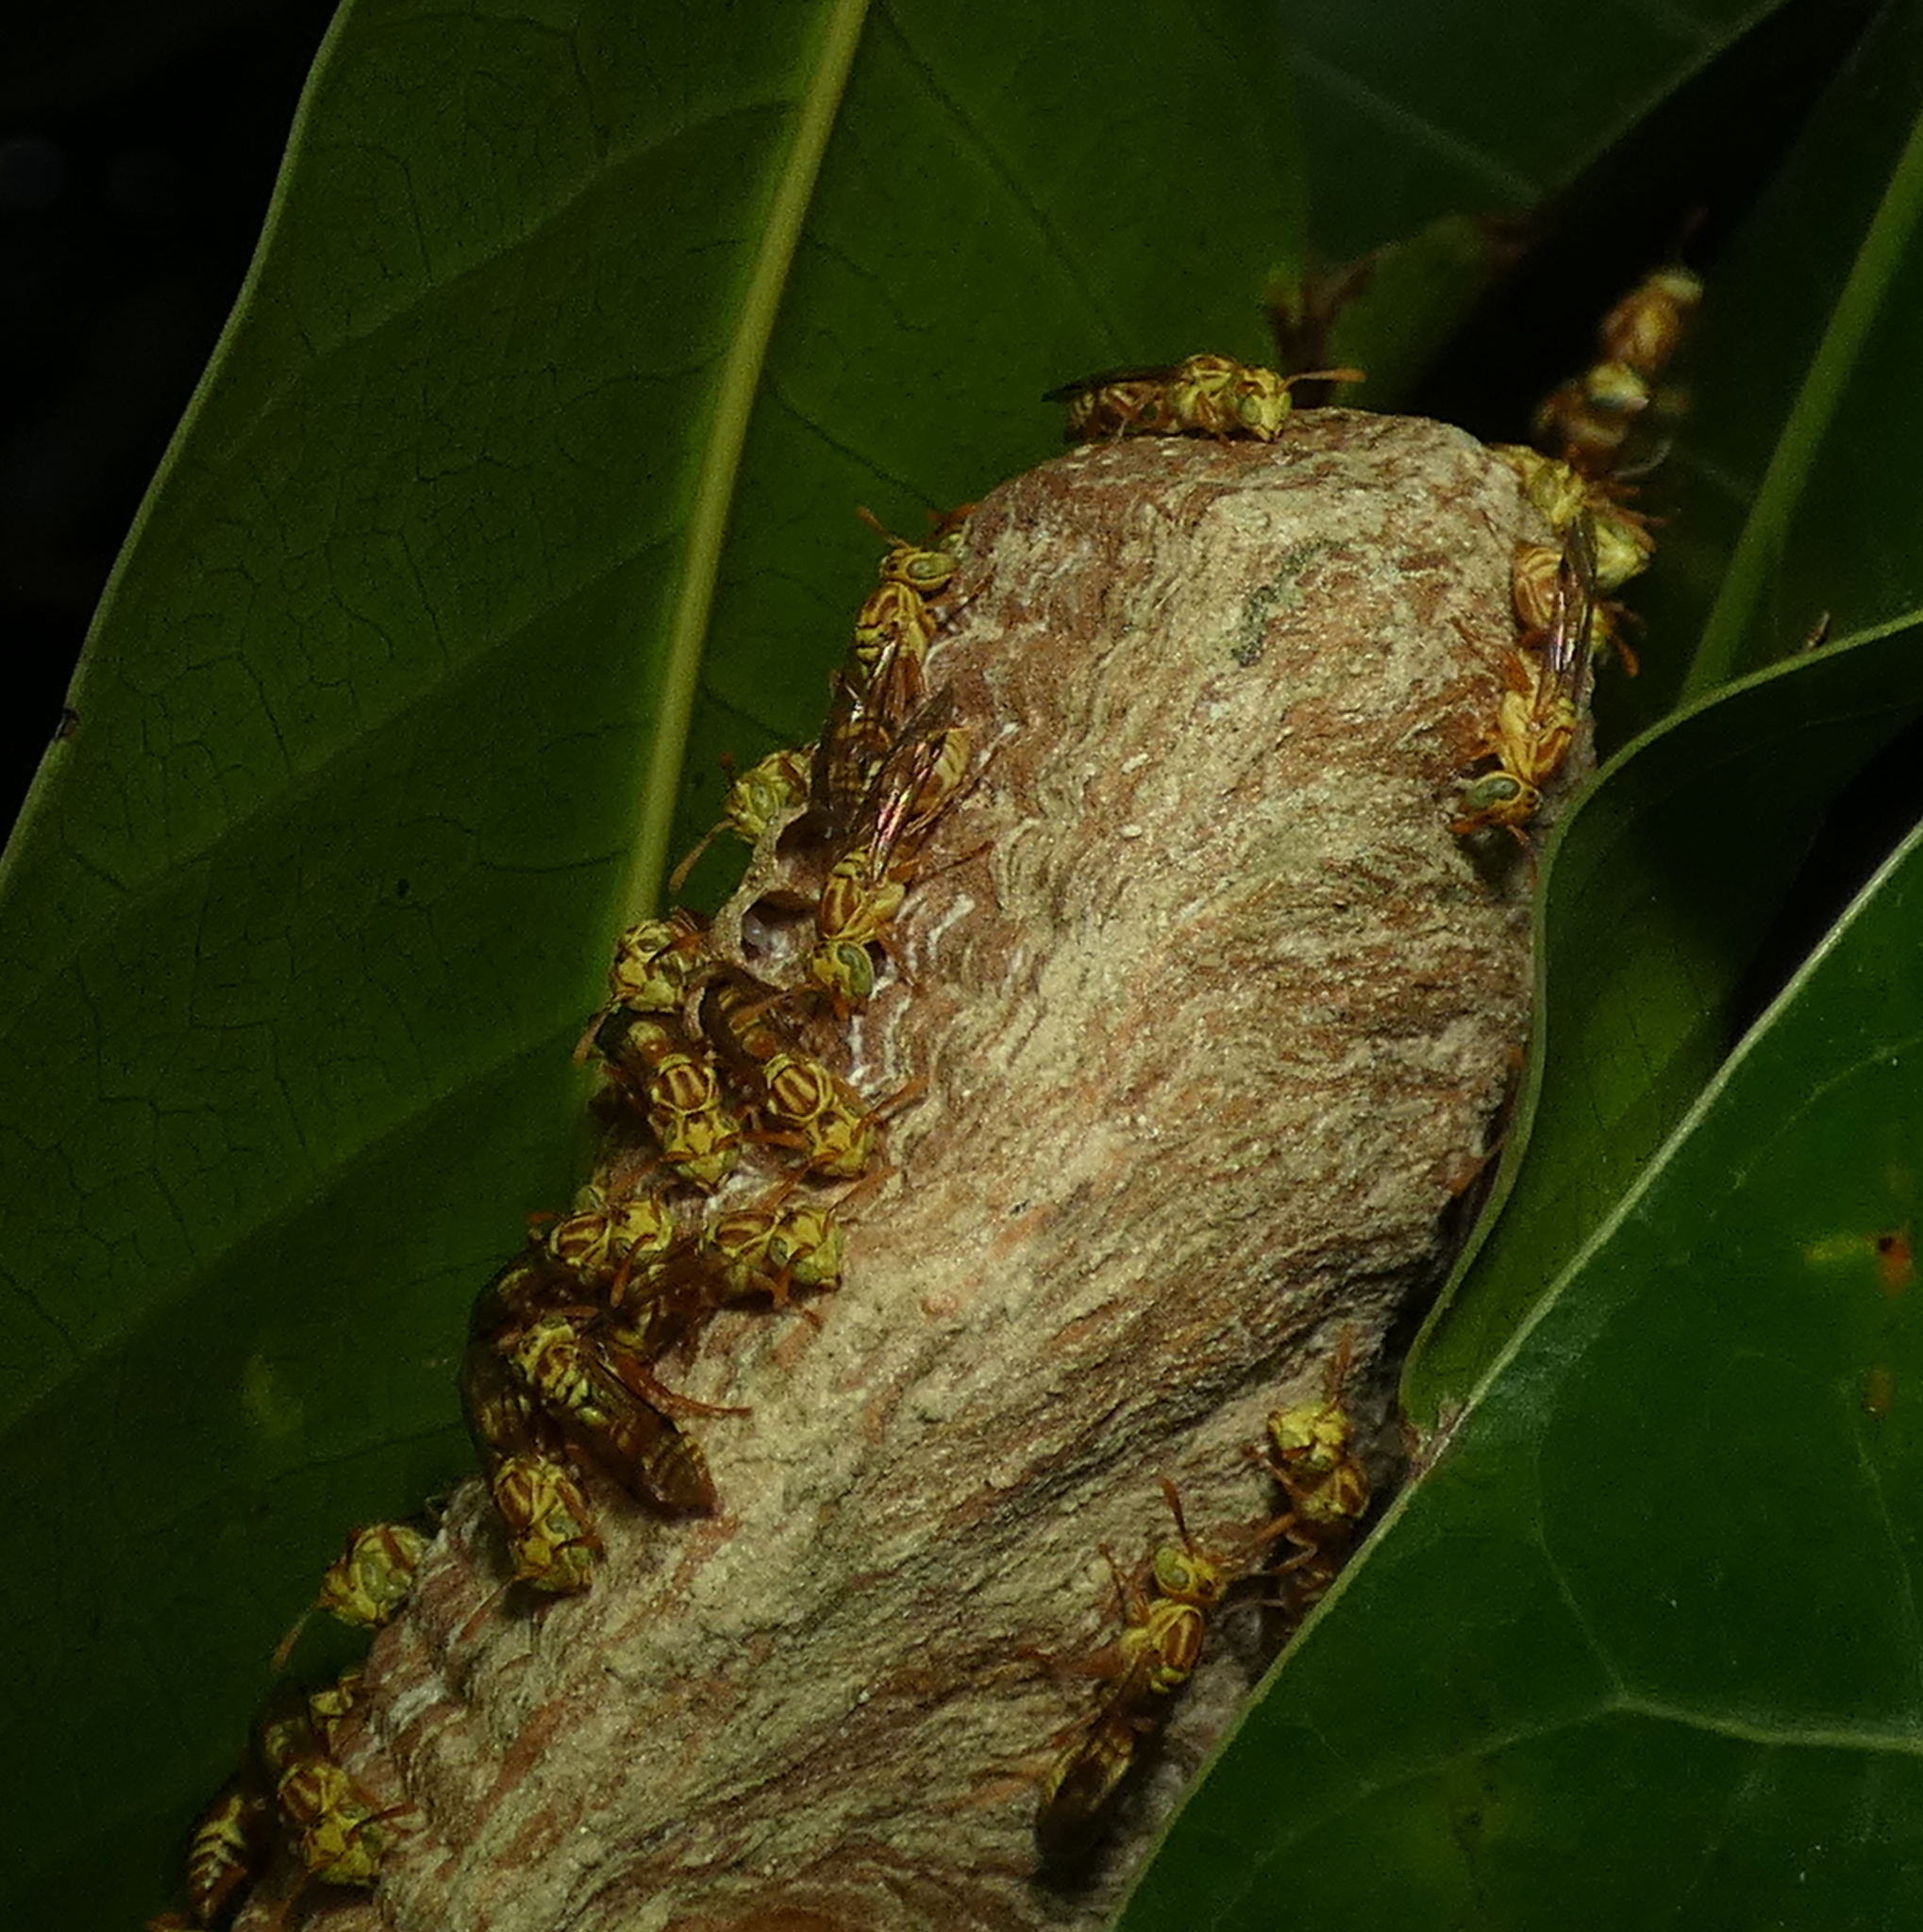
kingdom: Animalia
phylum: Arthropoda
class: Insecta
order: Hymenoptera
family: Vespidae
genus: Protopolybia
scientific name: Protopolybia potiguara
